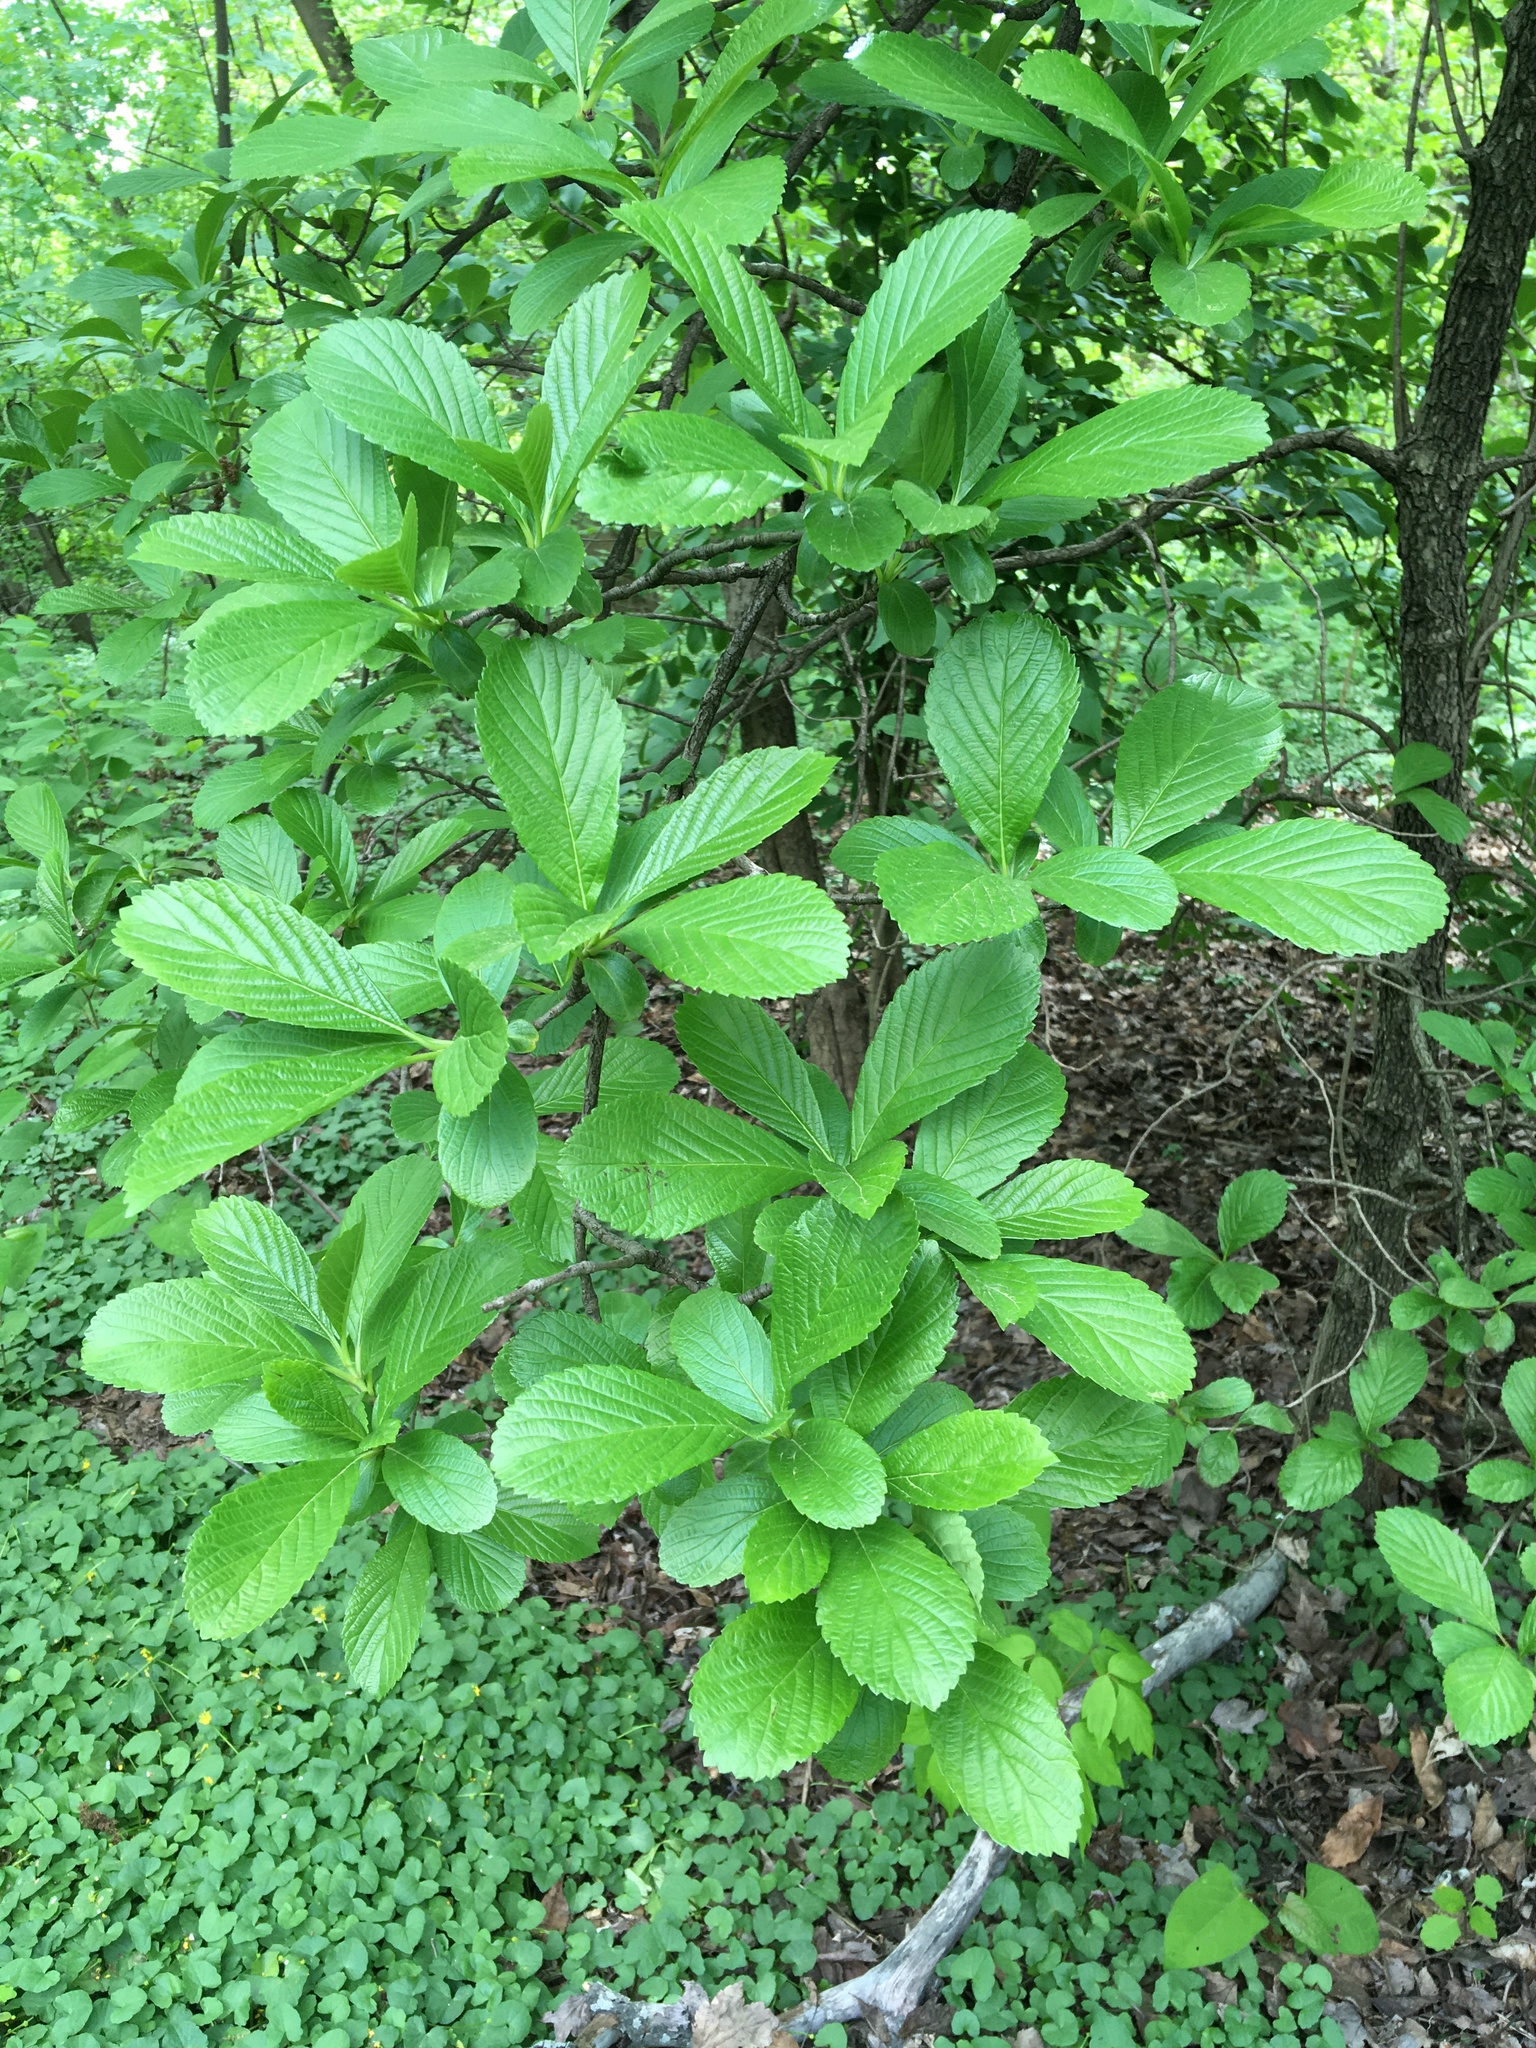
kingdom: Plantae
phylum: Tracheophyta
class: Magnoliopsida
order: Dipsacales
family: Viburnaceae
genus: Viburnum
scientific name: Viburnum sieboldii
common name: Siebold's arrowwood
